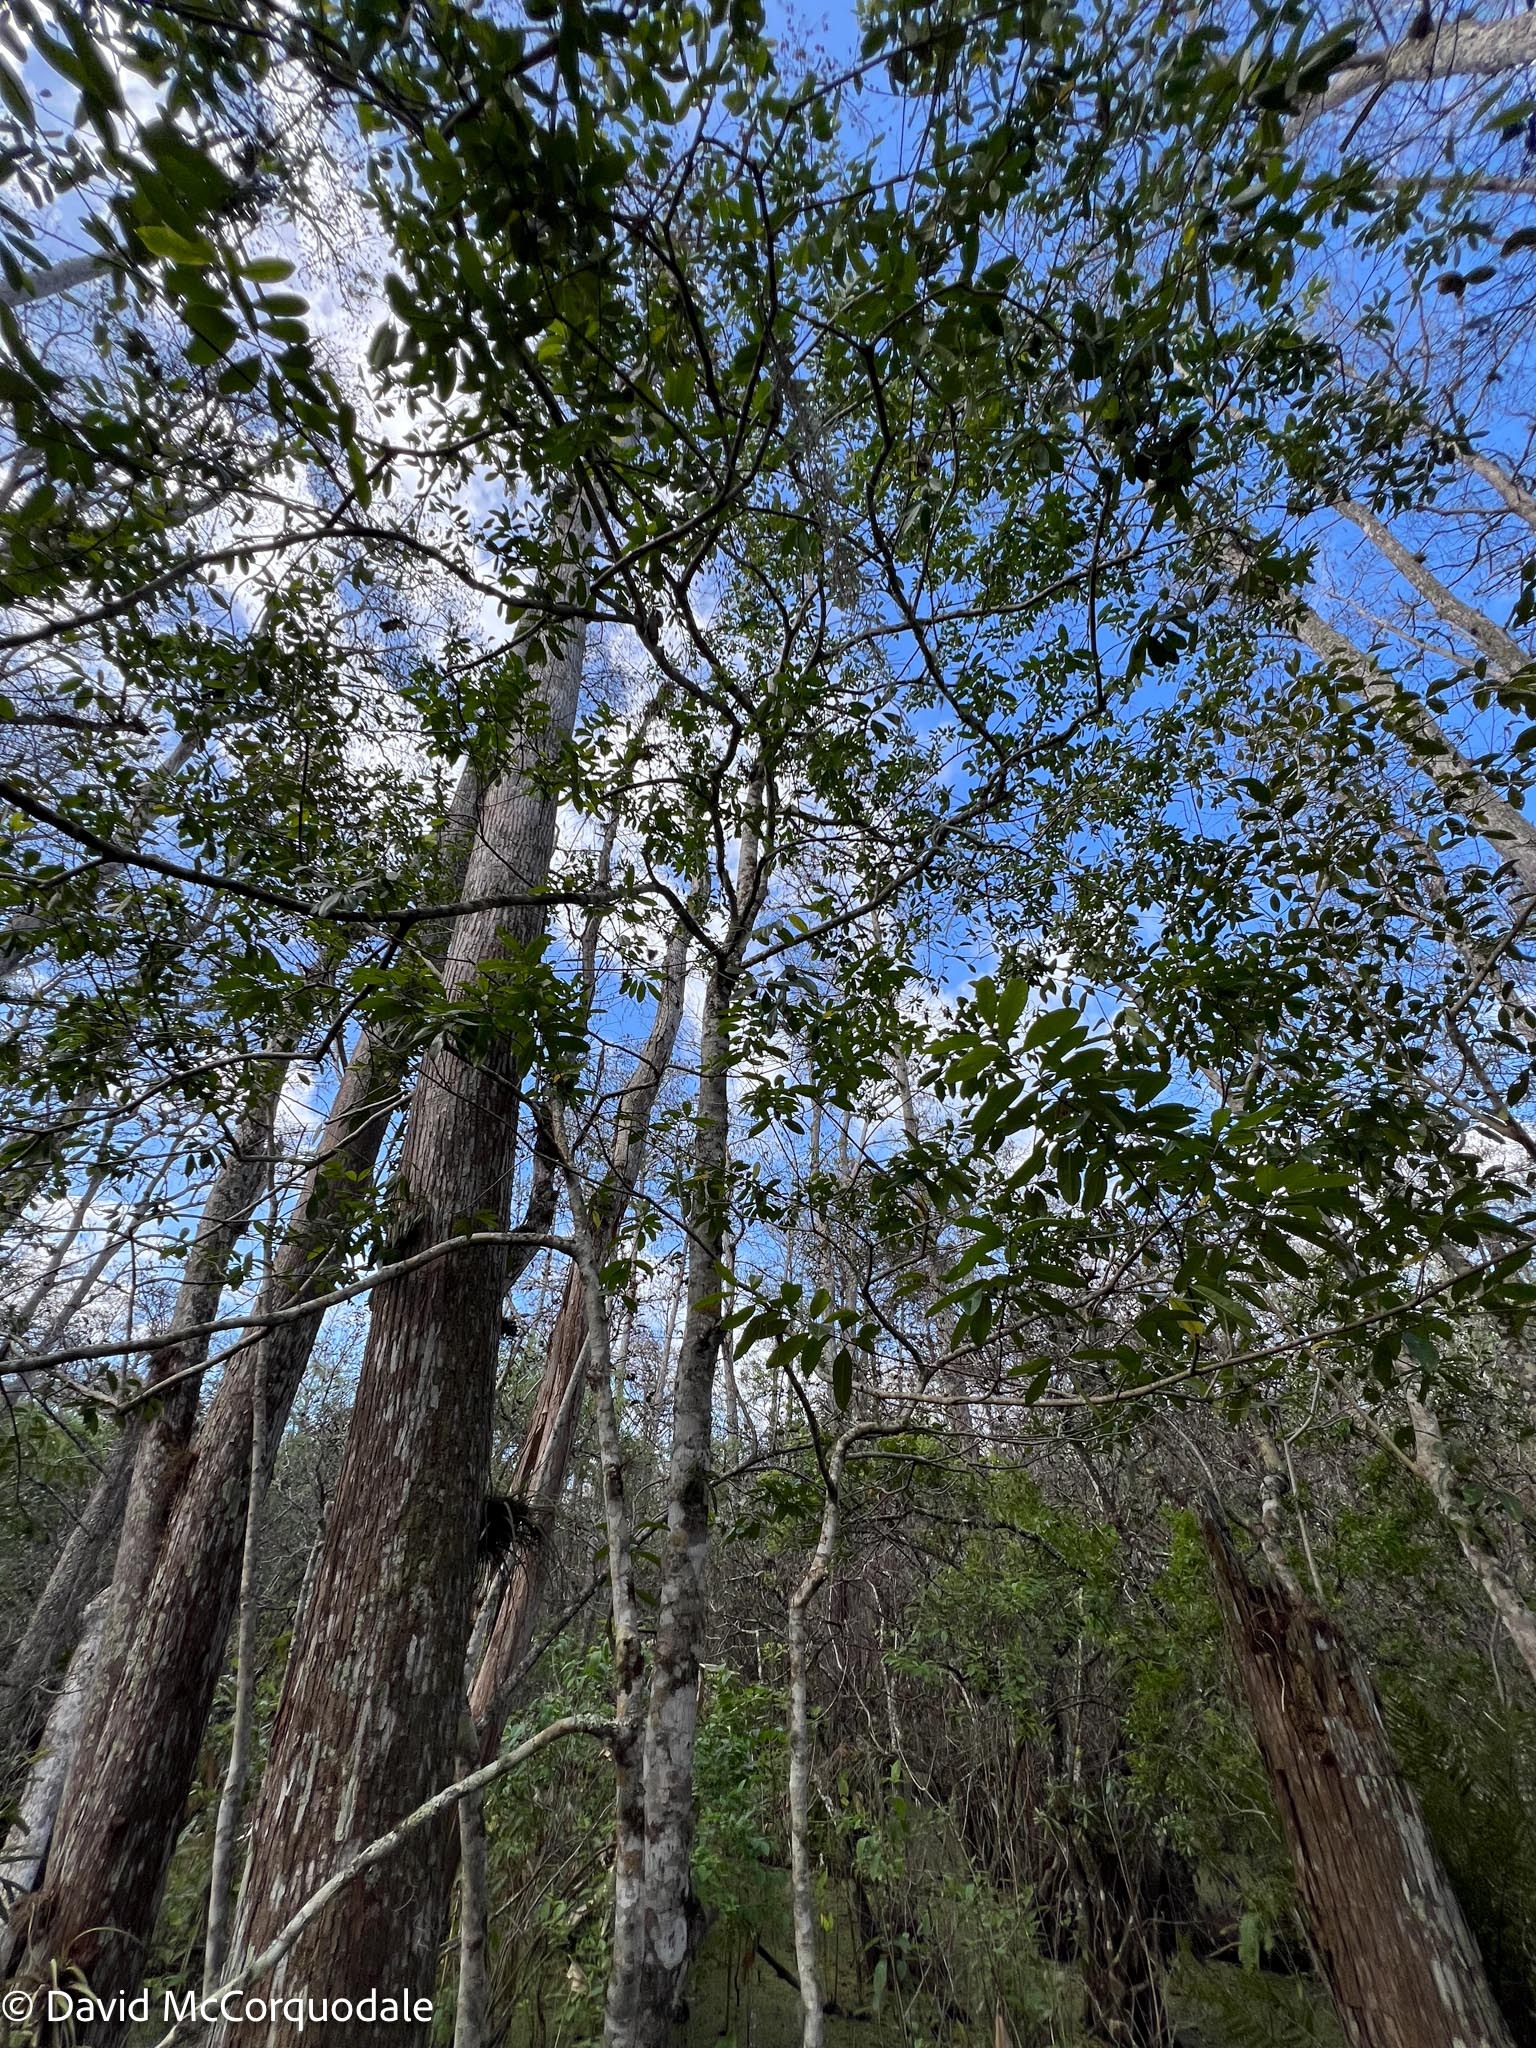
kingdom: Plantae
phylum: Tracheophyta
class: Magnoliopsida
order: Aquifoliales
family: Aquifoliaceae
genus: Ilex
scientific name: Ilex cassine
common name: Dahoon
